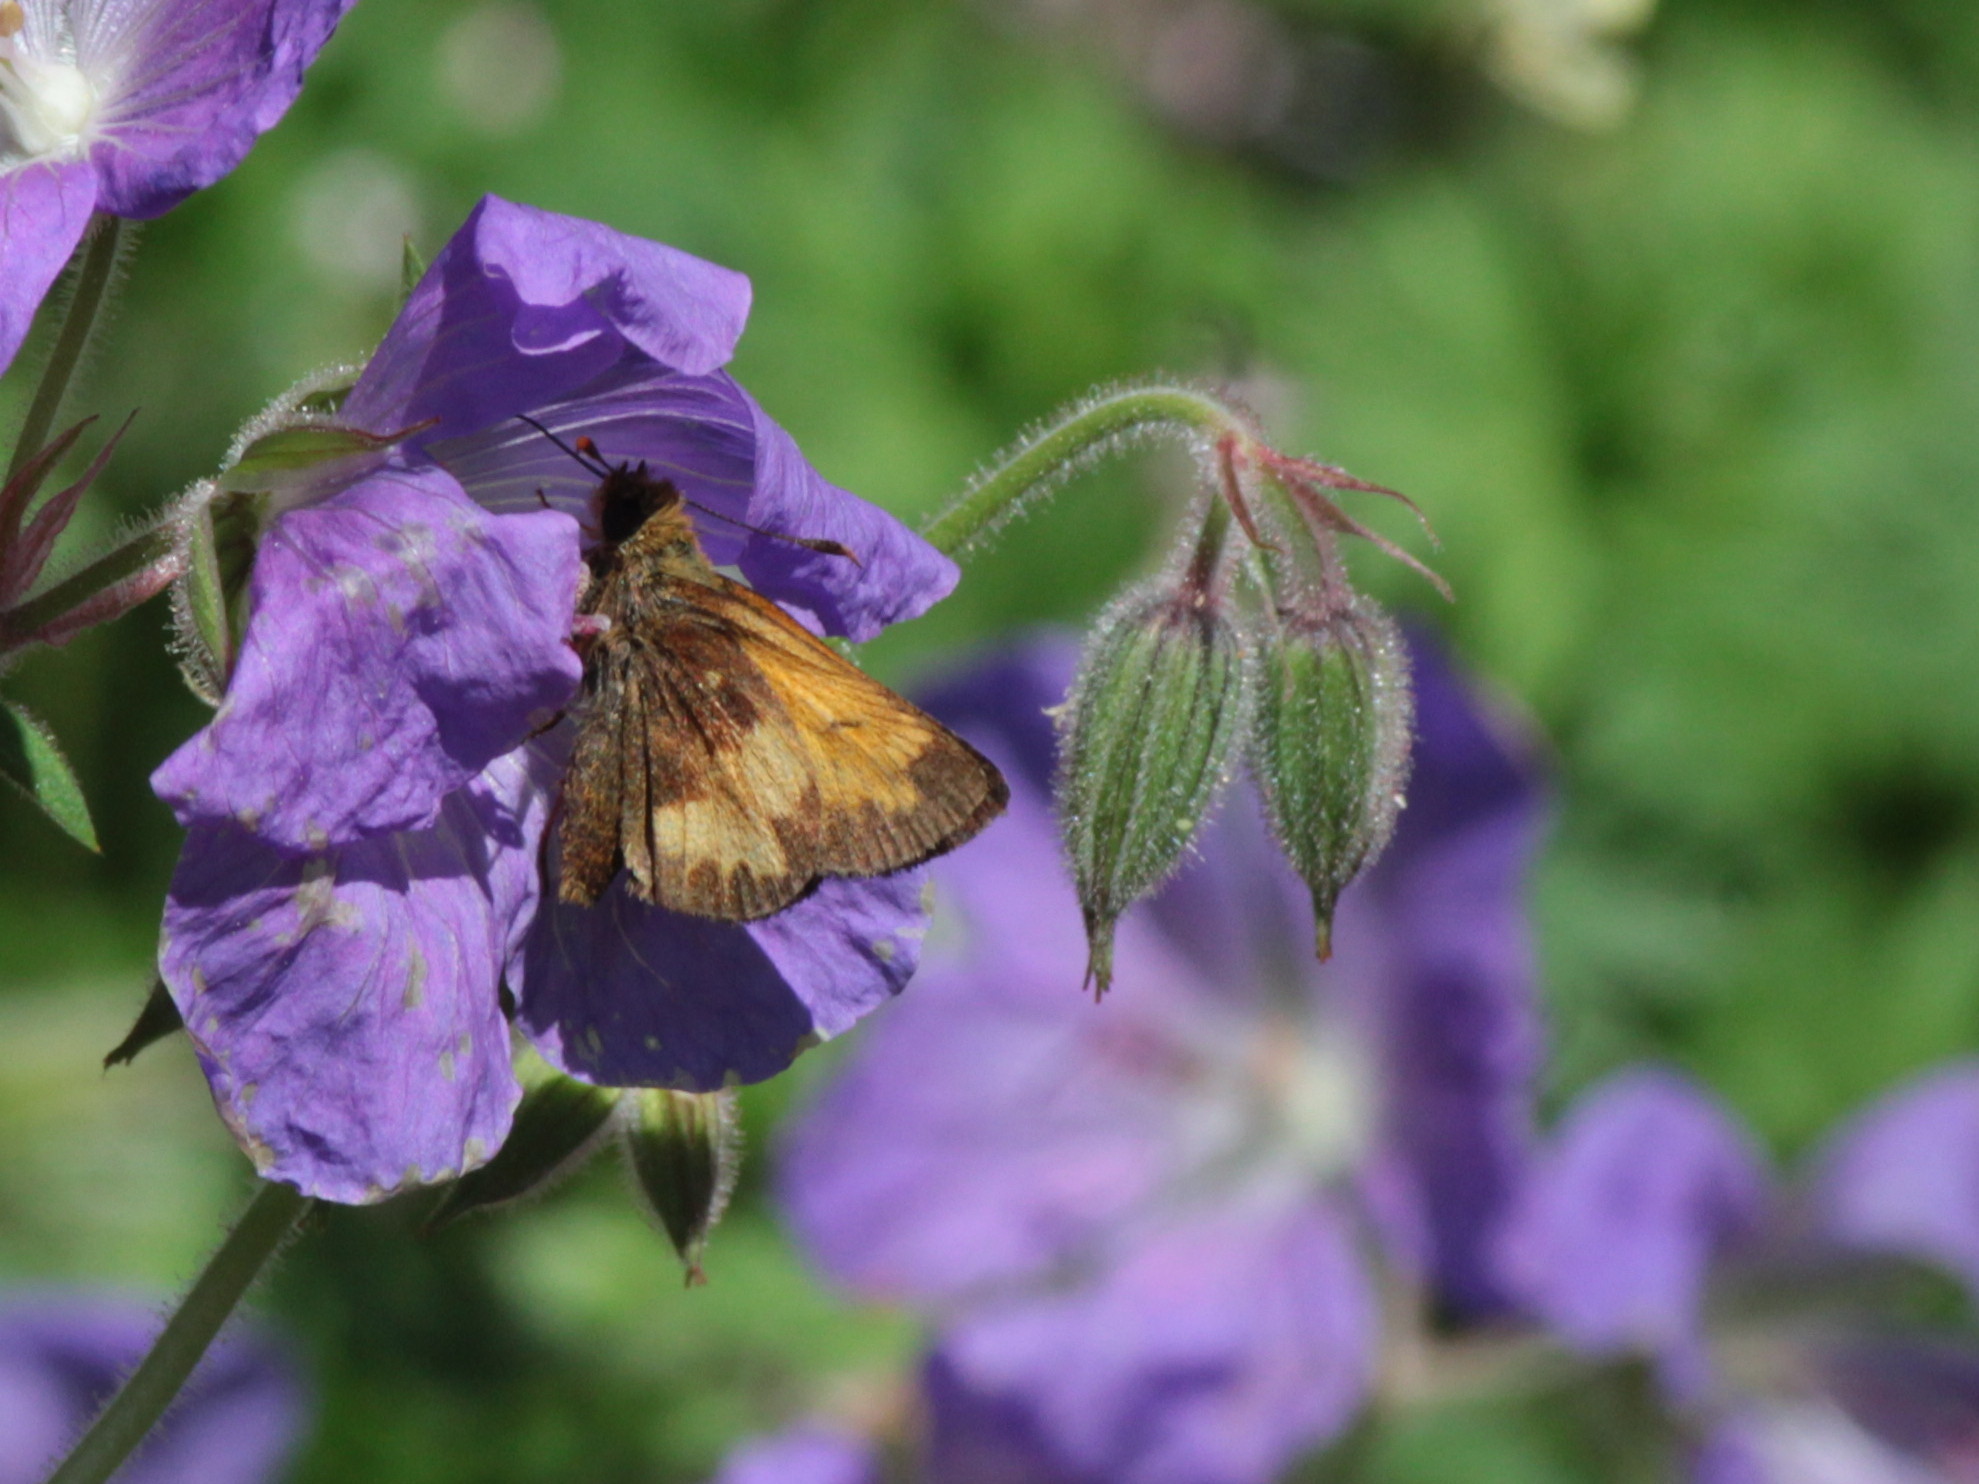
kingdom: Animalia
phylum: Arthropoda
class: Insecta
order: Lepidoptera
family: Hesperiidae
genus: Lon
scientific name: Lon hobomok
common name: Hobomok skipper
